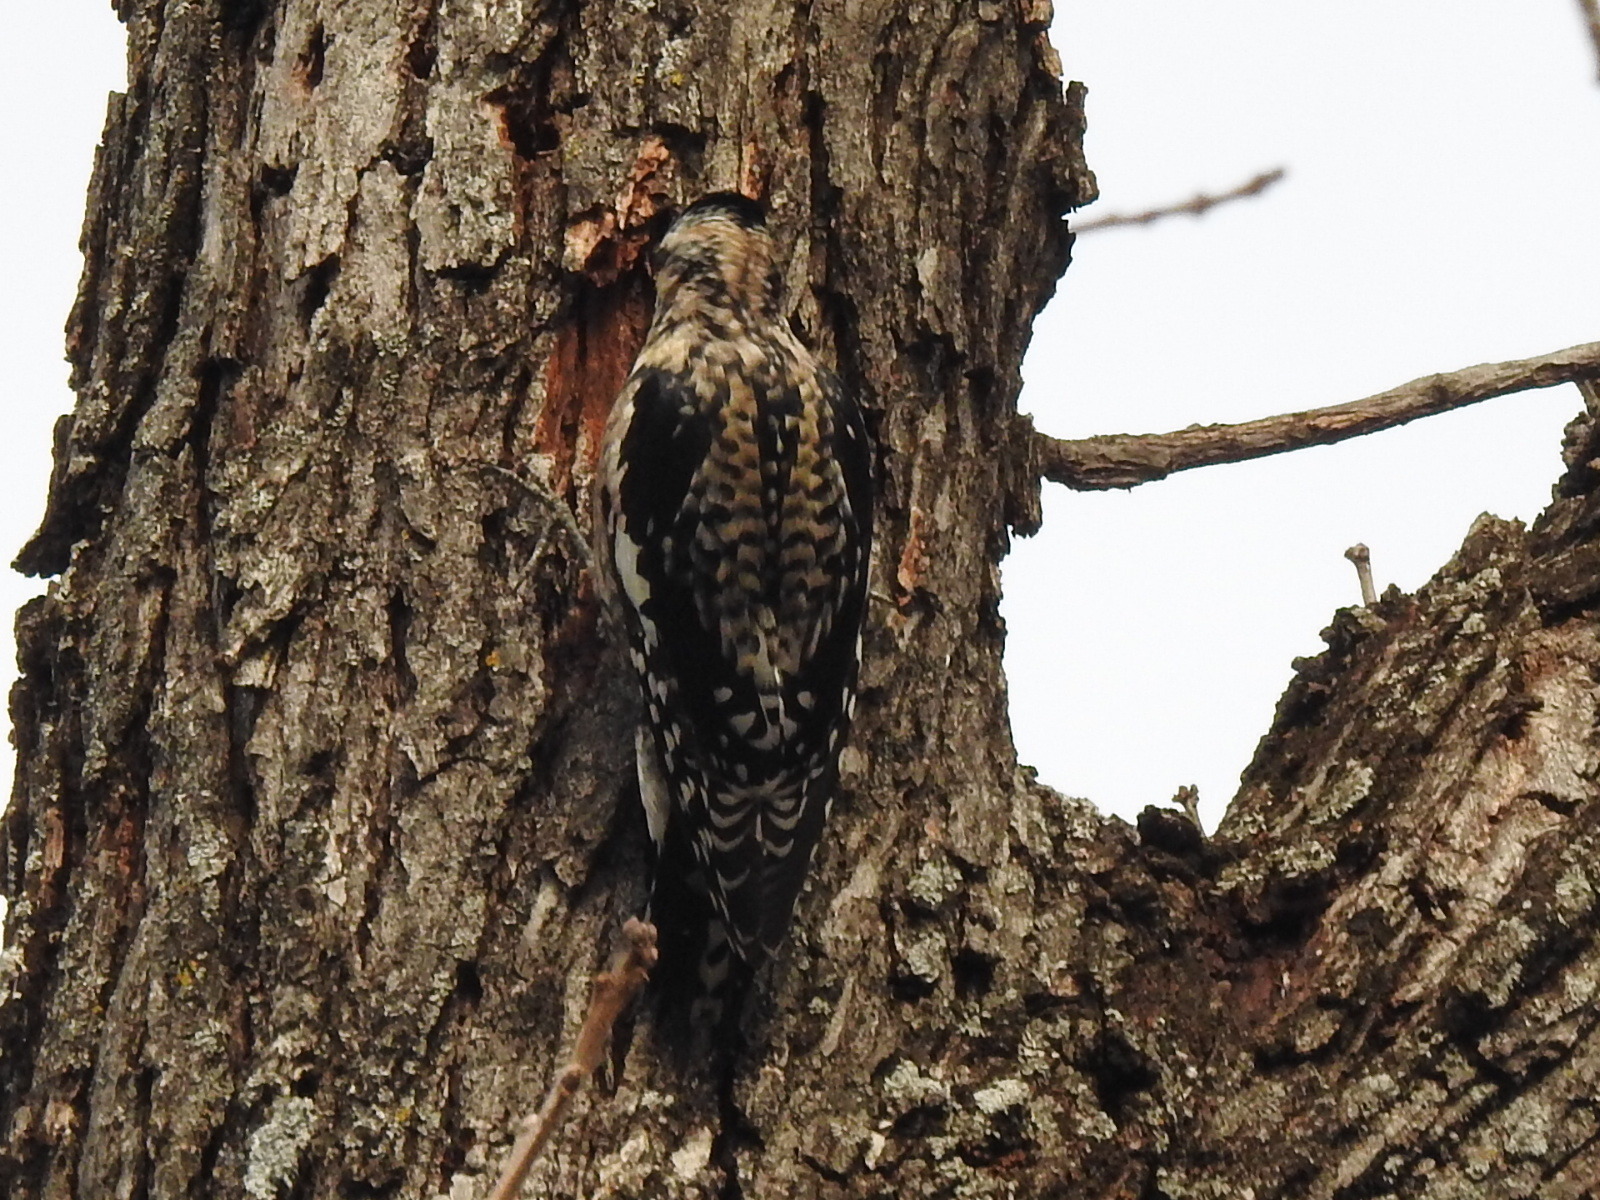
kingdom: Animalia
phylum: Chordata
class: Aves
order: Piciformes
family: Picidae
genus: Sphyrapicus
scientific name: Sphyrapicus varius
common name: Yellow-bellied sapsucker
